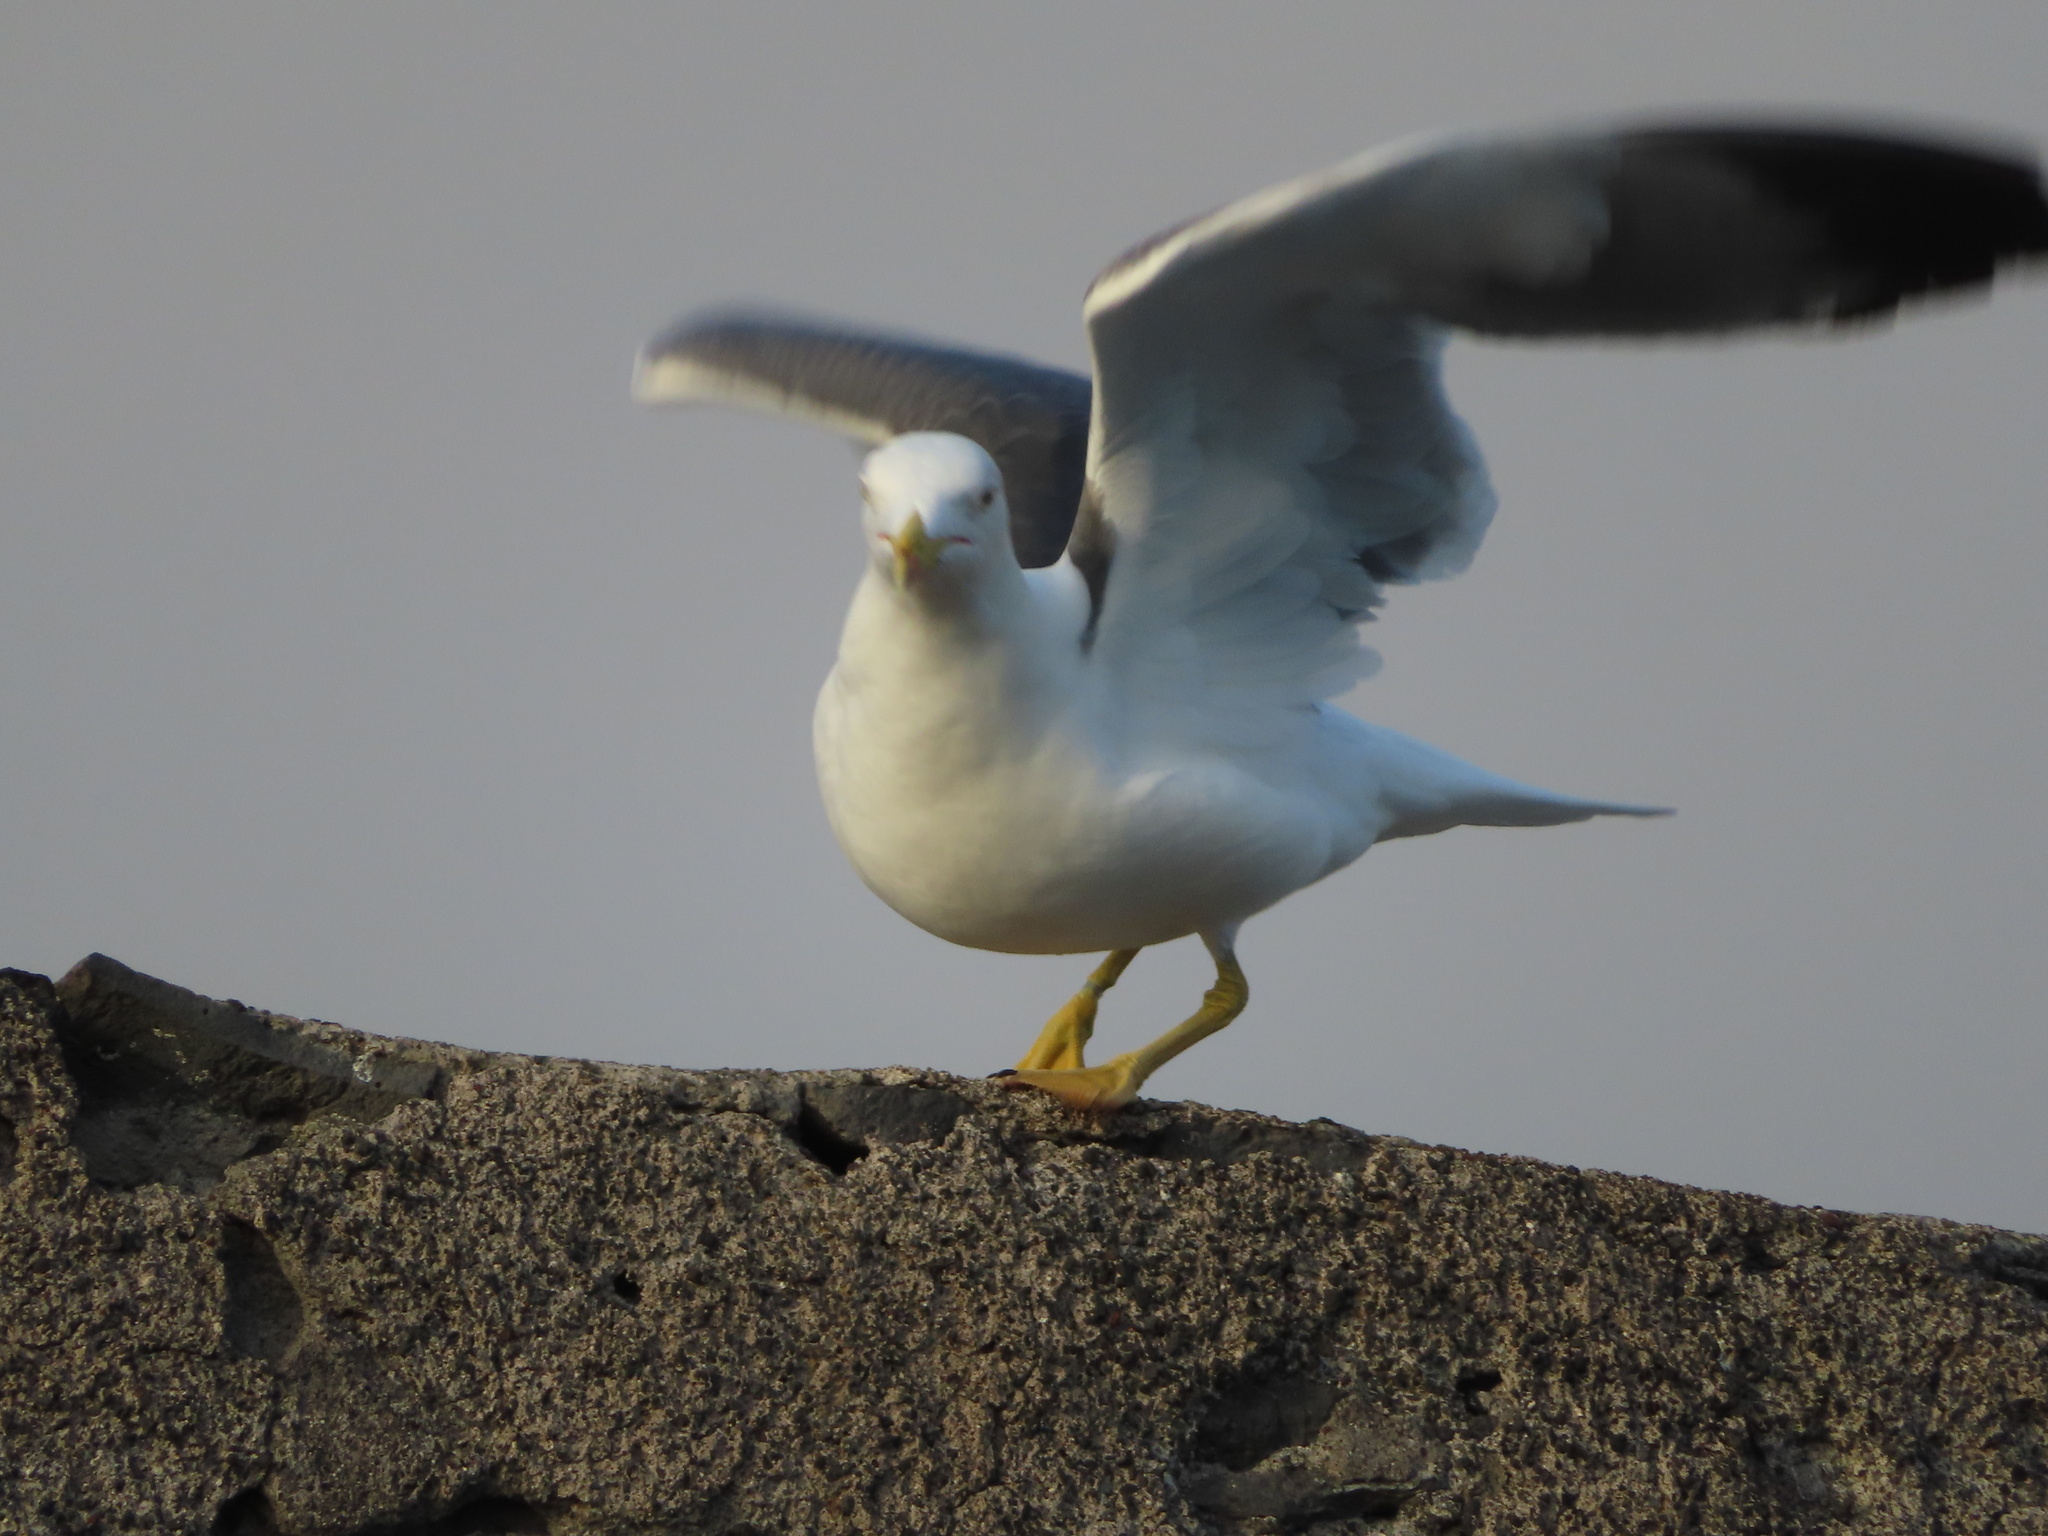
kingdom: Animalia
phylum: Chordata
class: Aves
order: Charadriiformes
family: Laridae
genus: Larus
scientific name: Larus michahellis
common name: Yellow-legged gull
